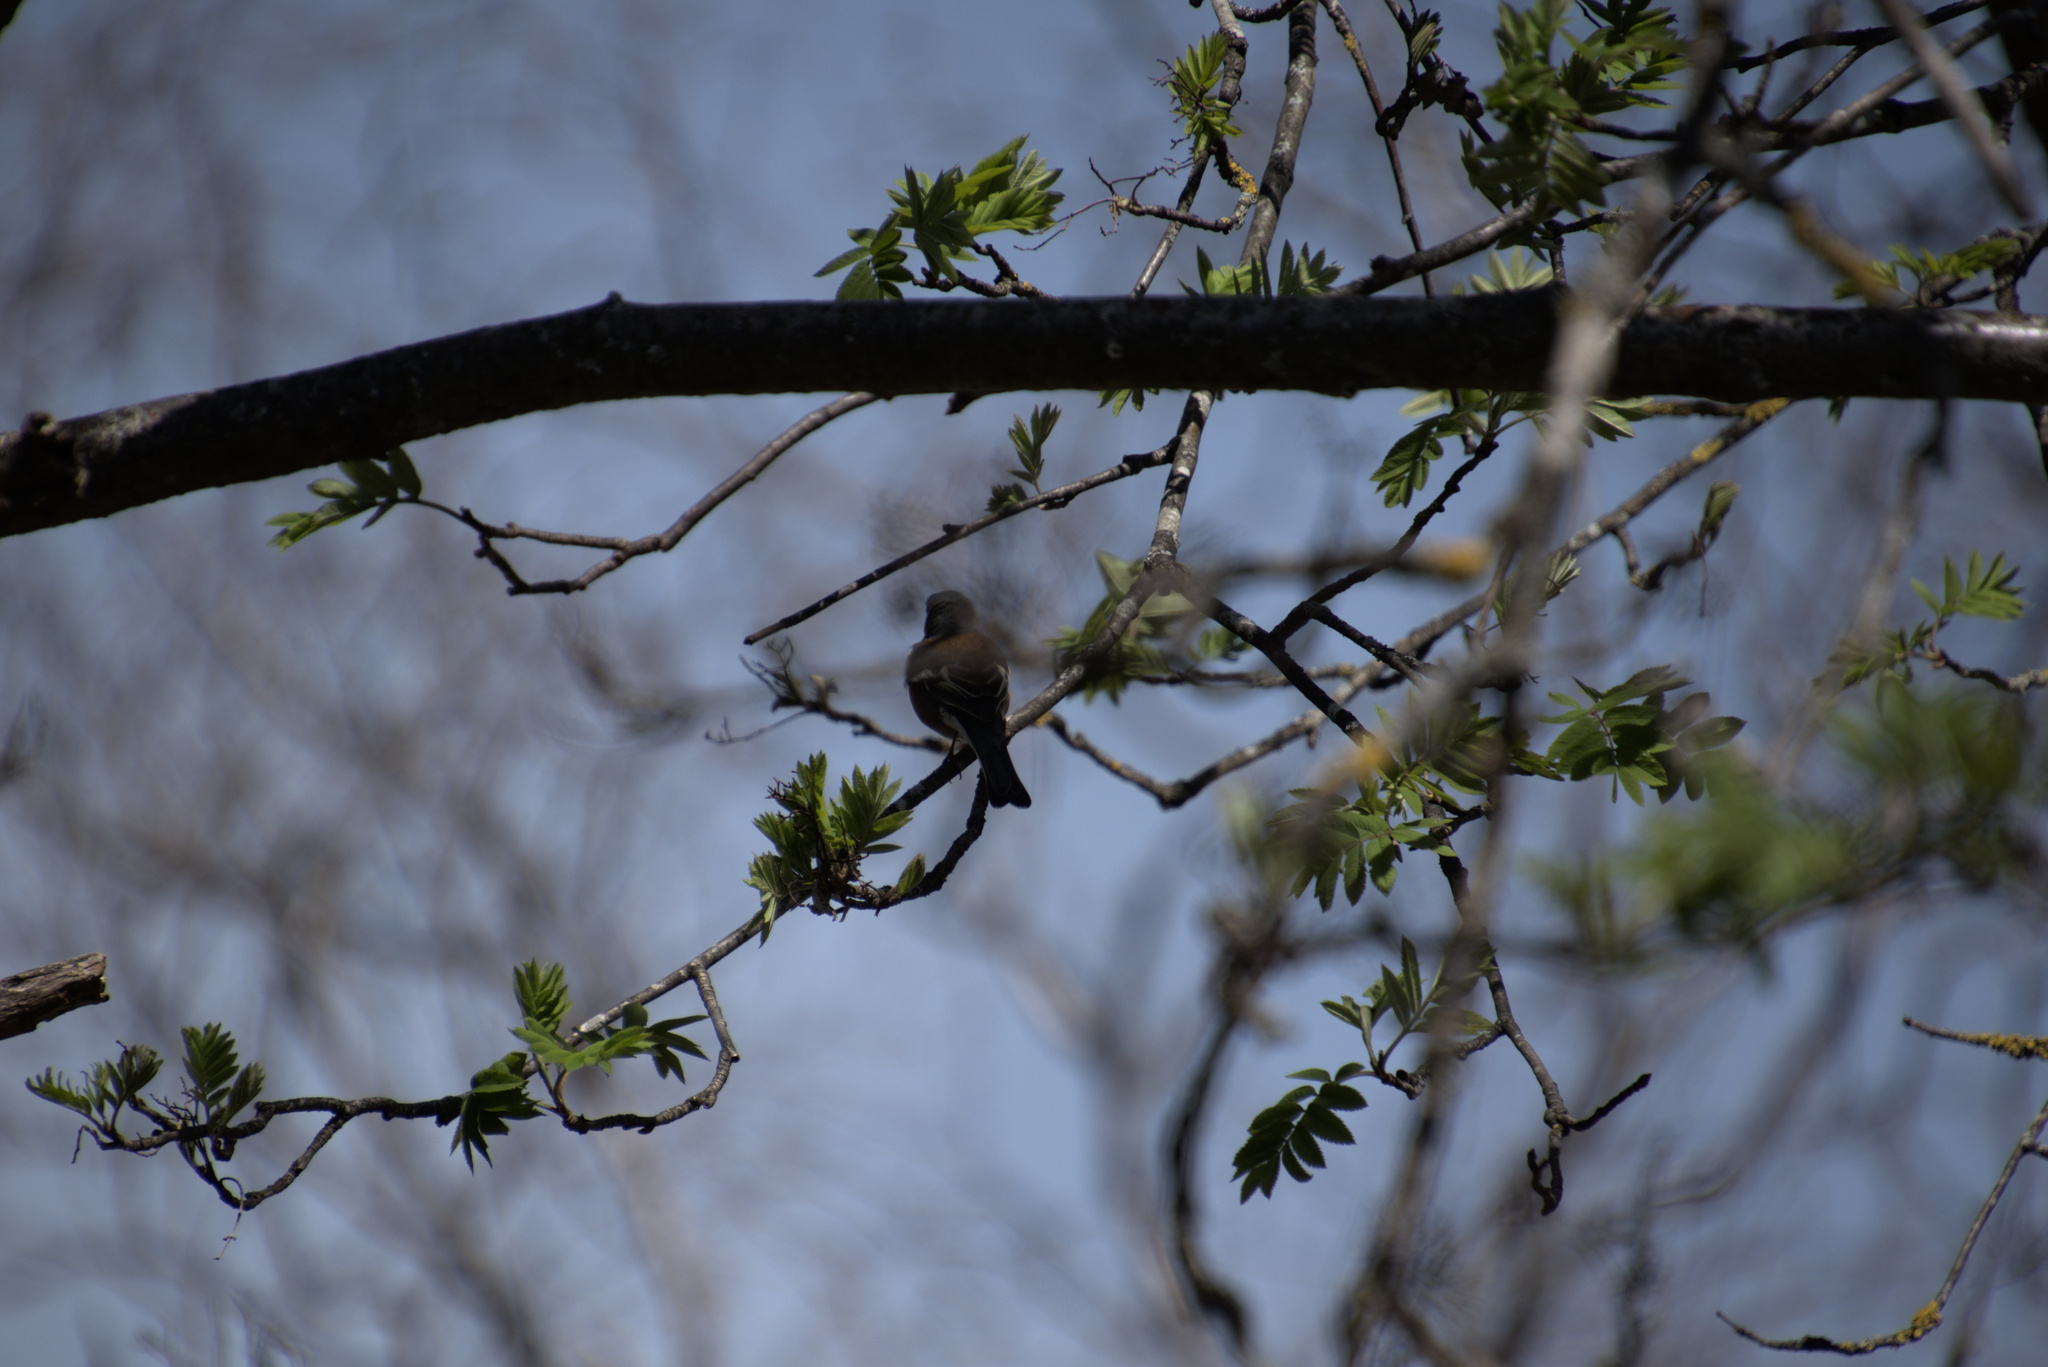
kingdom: Animalia
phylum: Chordata
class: Aves
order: Passeriformes
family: Fringillidae
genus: Fringilla
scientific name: Fringilla coelebs
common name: Common chaffinch
